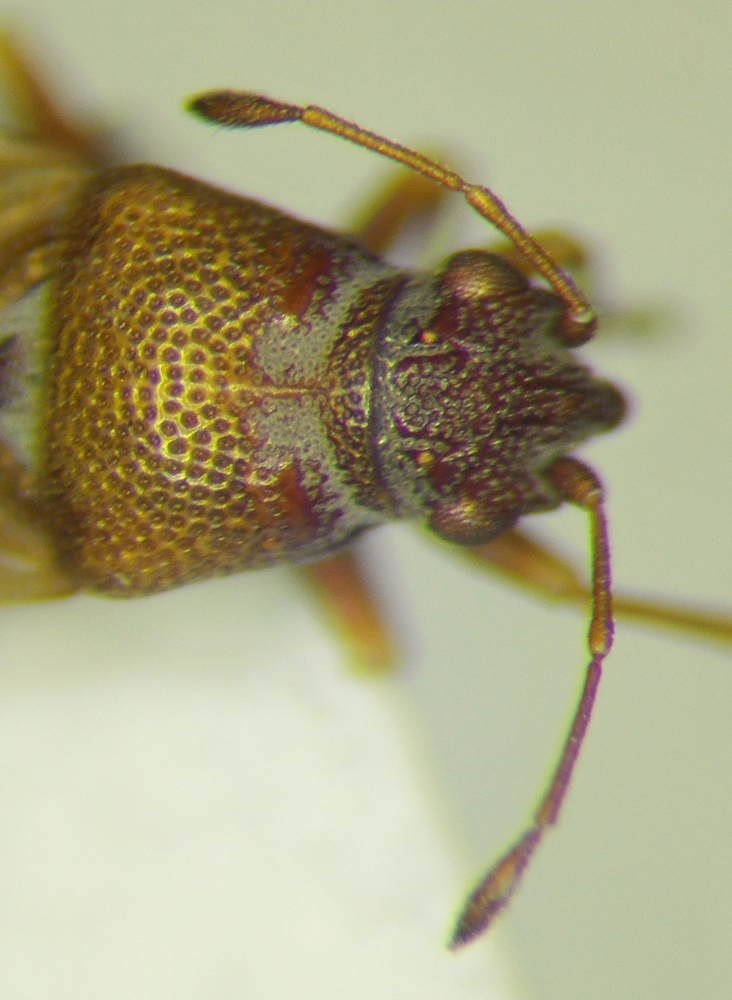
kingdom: Animalia
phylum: Arthropoda
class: Insecta
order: Hemiptera
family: Cymidae
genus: Cymus
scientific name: Cymus claviculus
